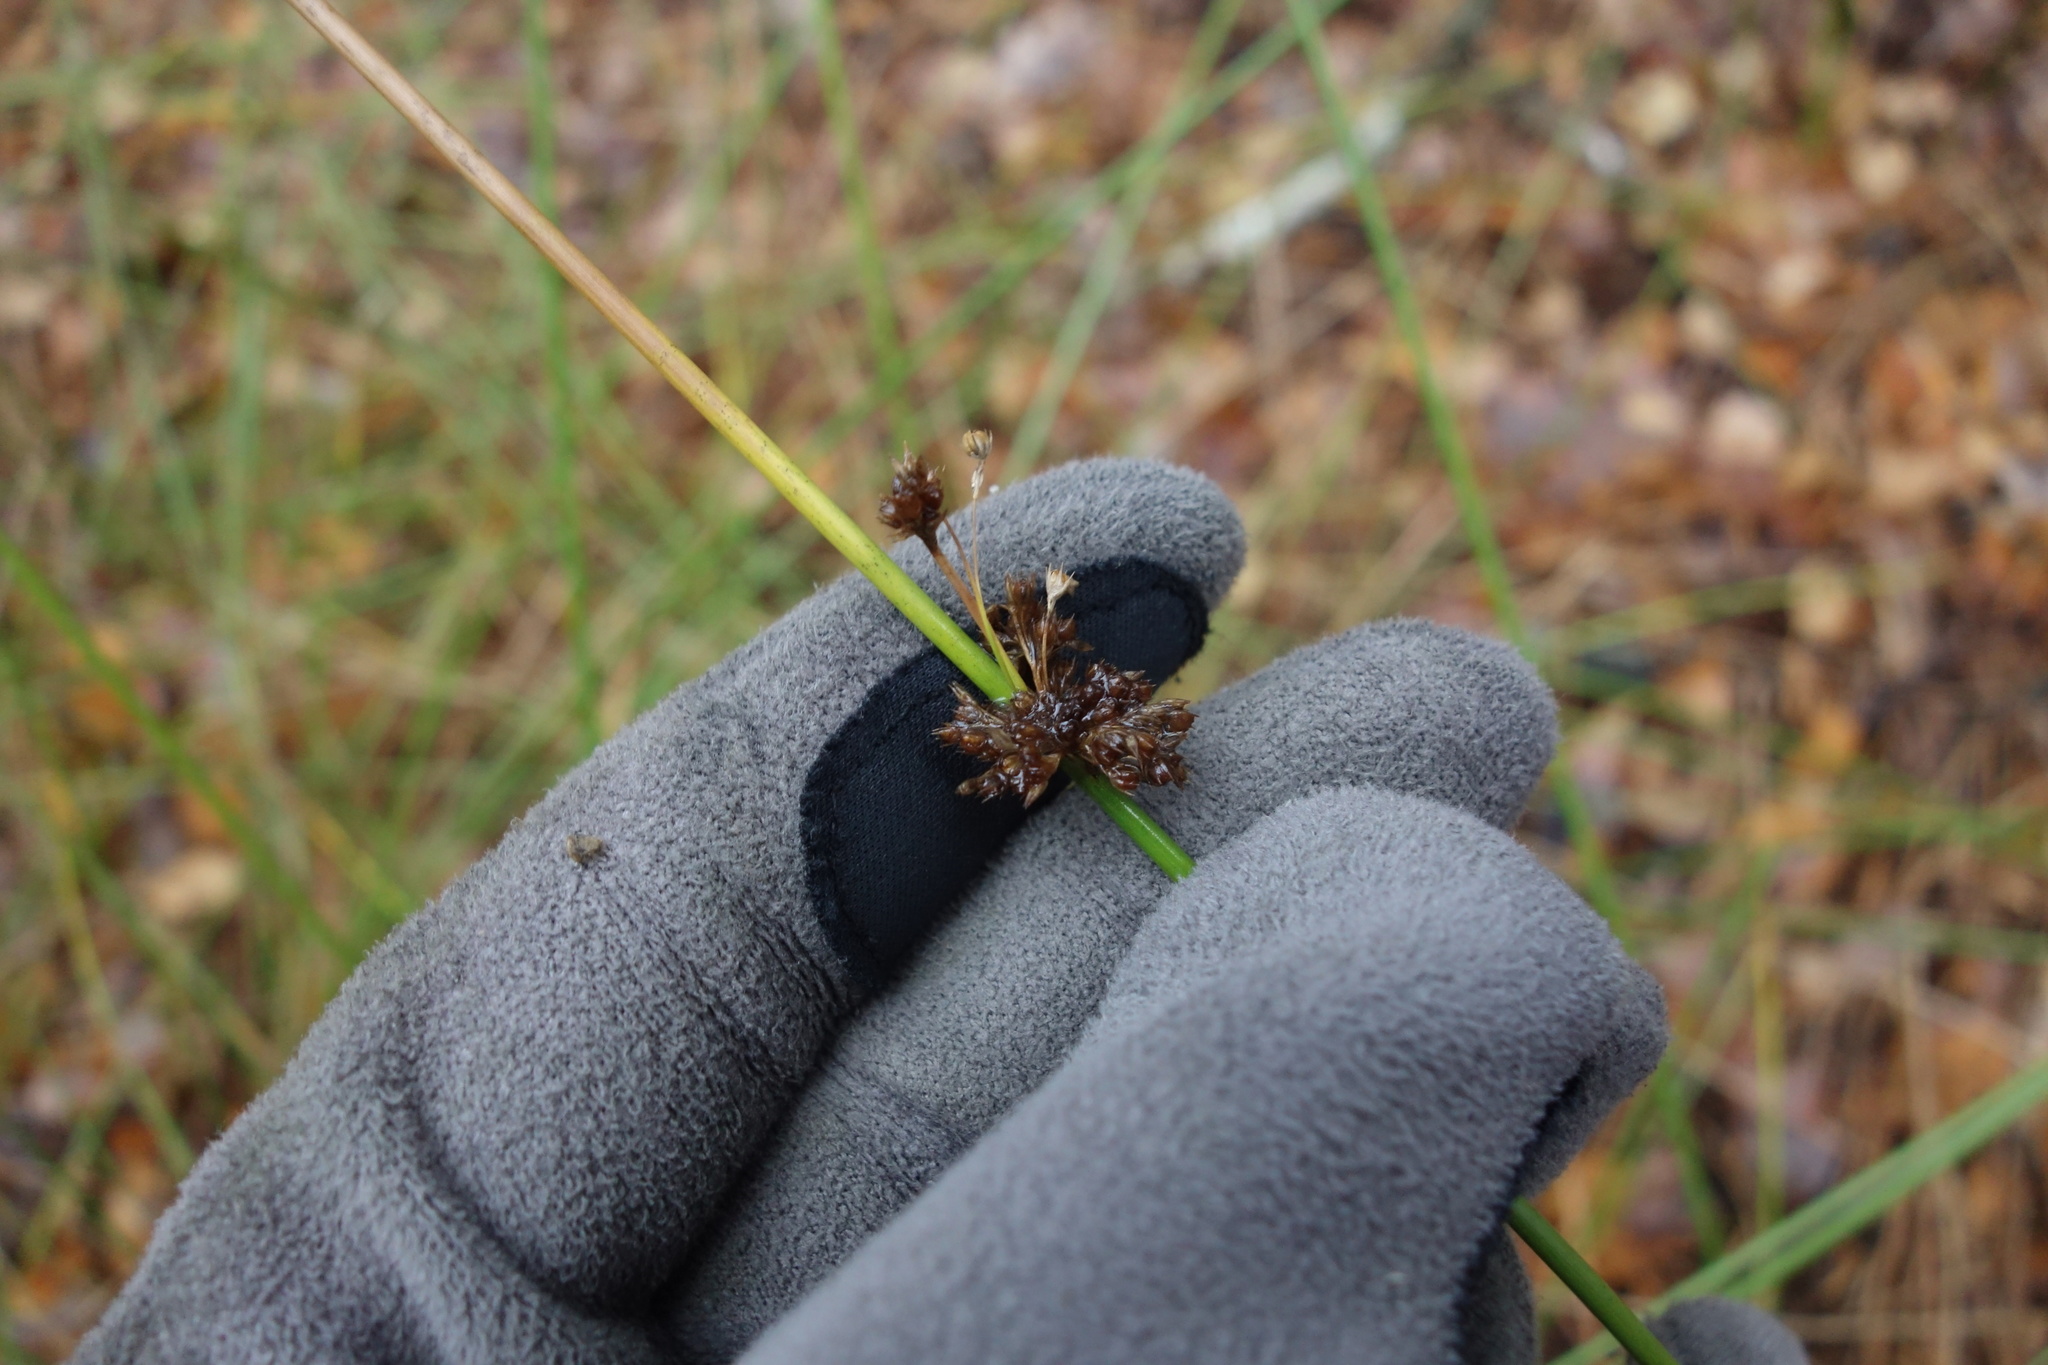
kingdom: Plantae
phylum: Tracheophyta
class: Liliopsida
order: Poales
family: Juncaceae
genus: Juncus
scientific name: Juncus effusus
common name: Soft rush
